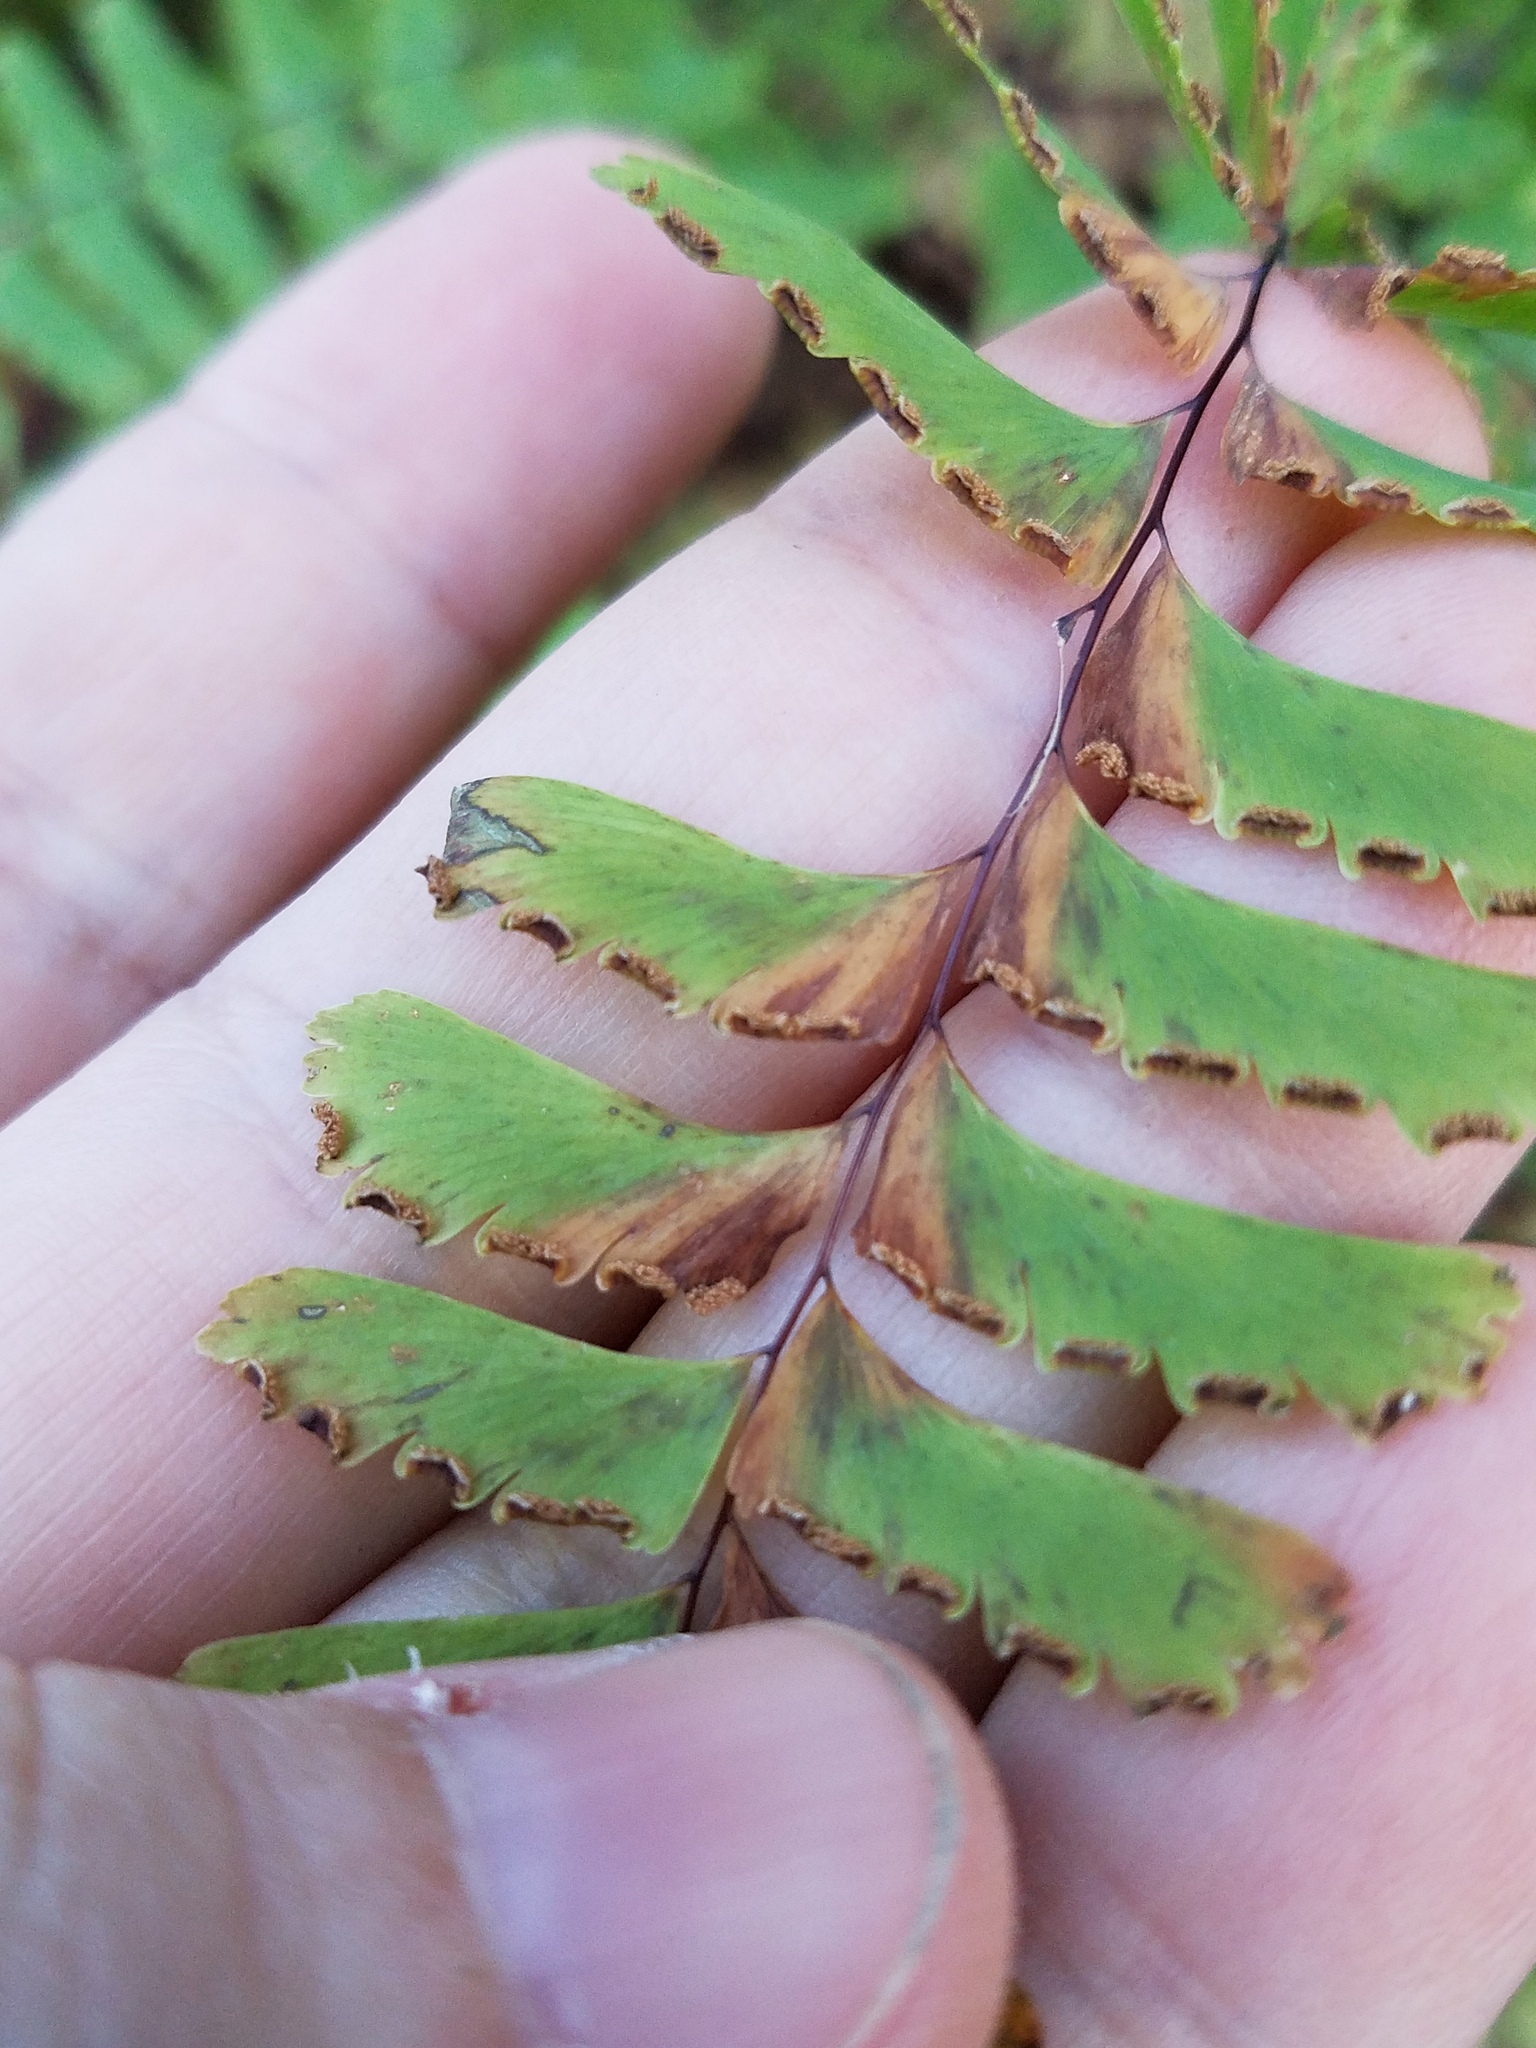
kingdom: Plantae
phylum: Tracheophyta
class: Polypodiopsida
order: Polypodiales
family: Pteridaceae
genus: Adiantum
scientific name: Adiantum pedatum
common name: Five-finger fern
